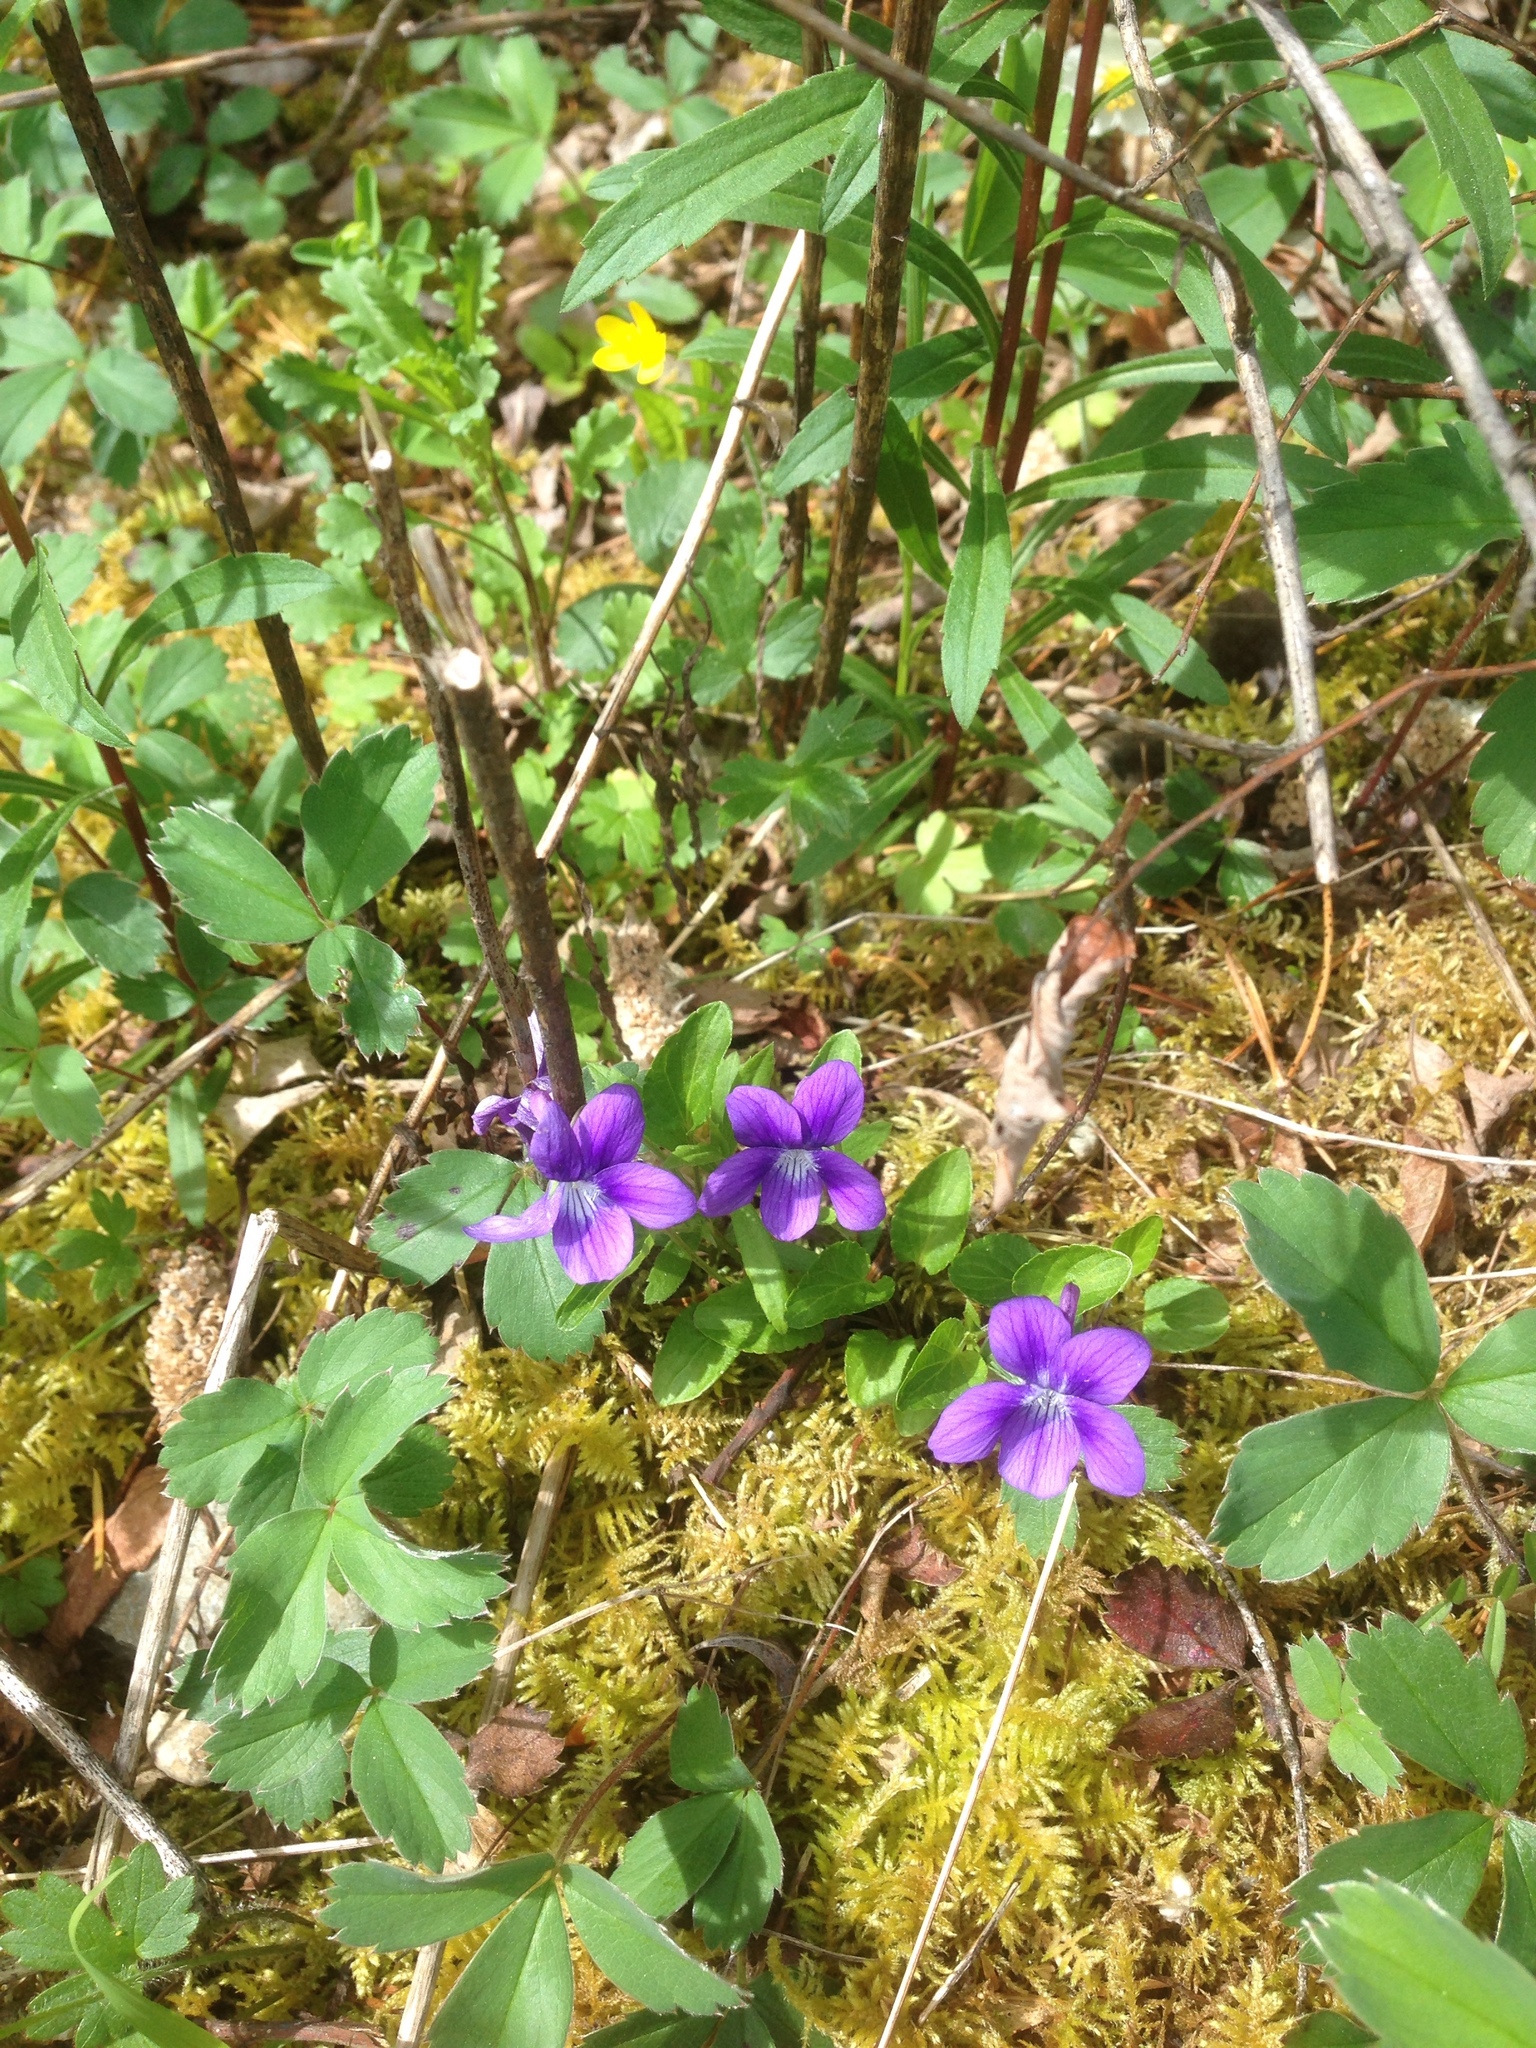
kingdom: Plantae
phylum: Tracheophyta
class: Magnoliopsida
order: Malpighiales
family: Violaceae
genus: Viola
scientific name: Viola adunca
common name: Sand violet
